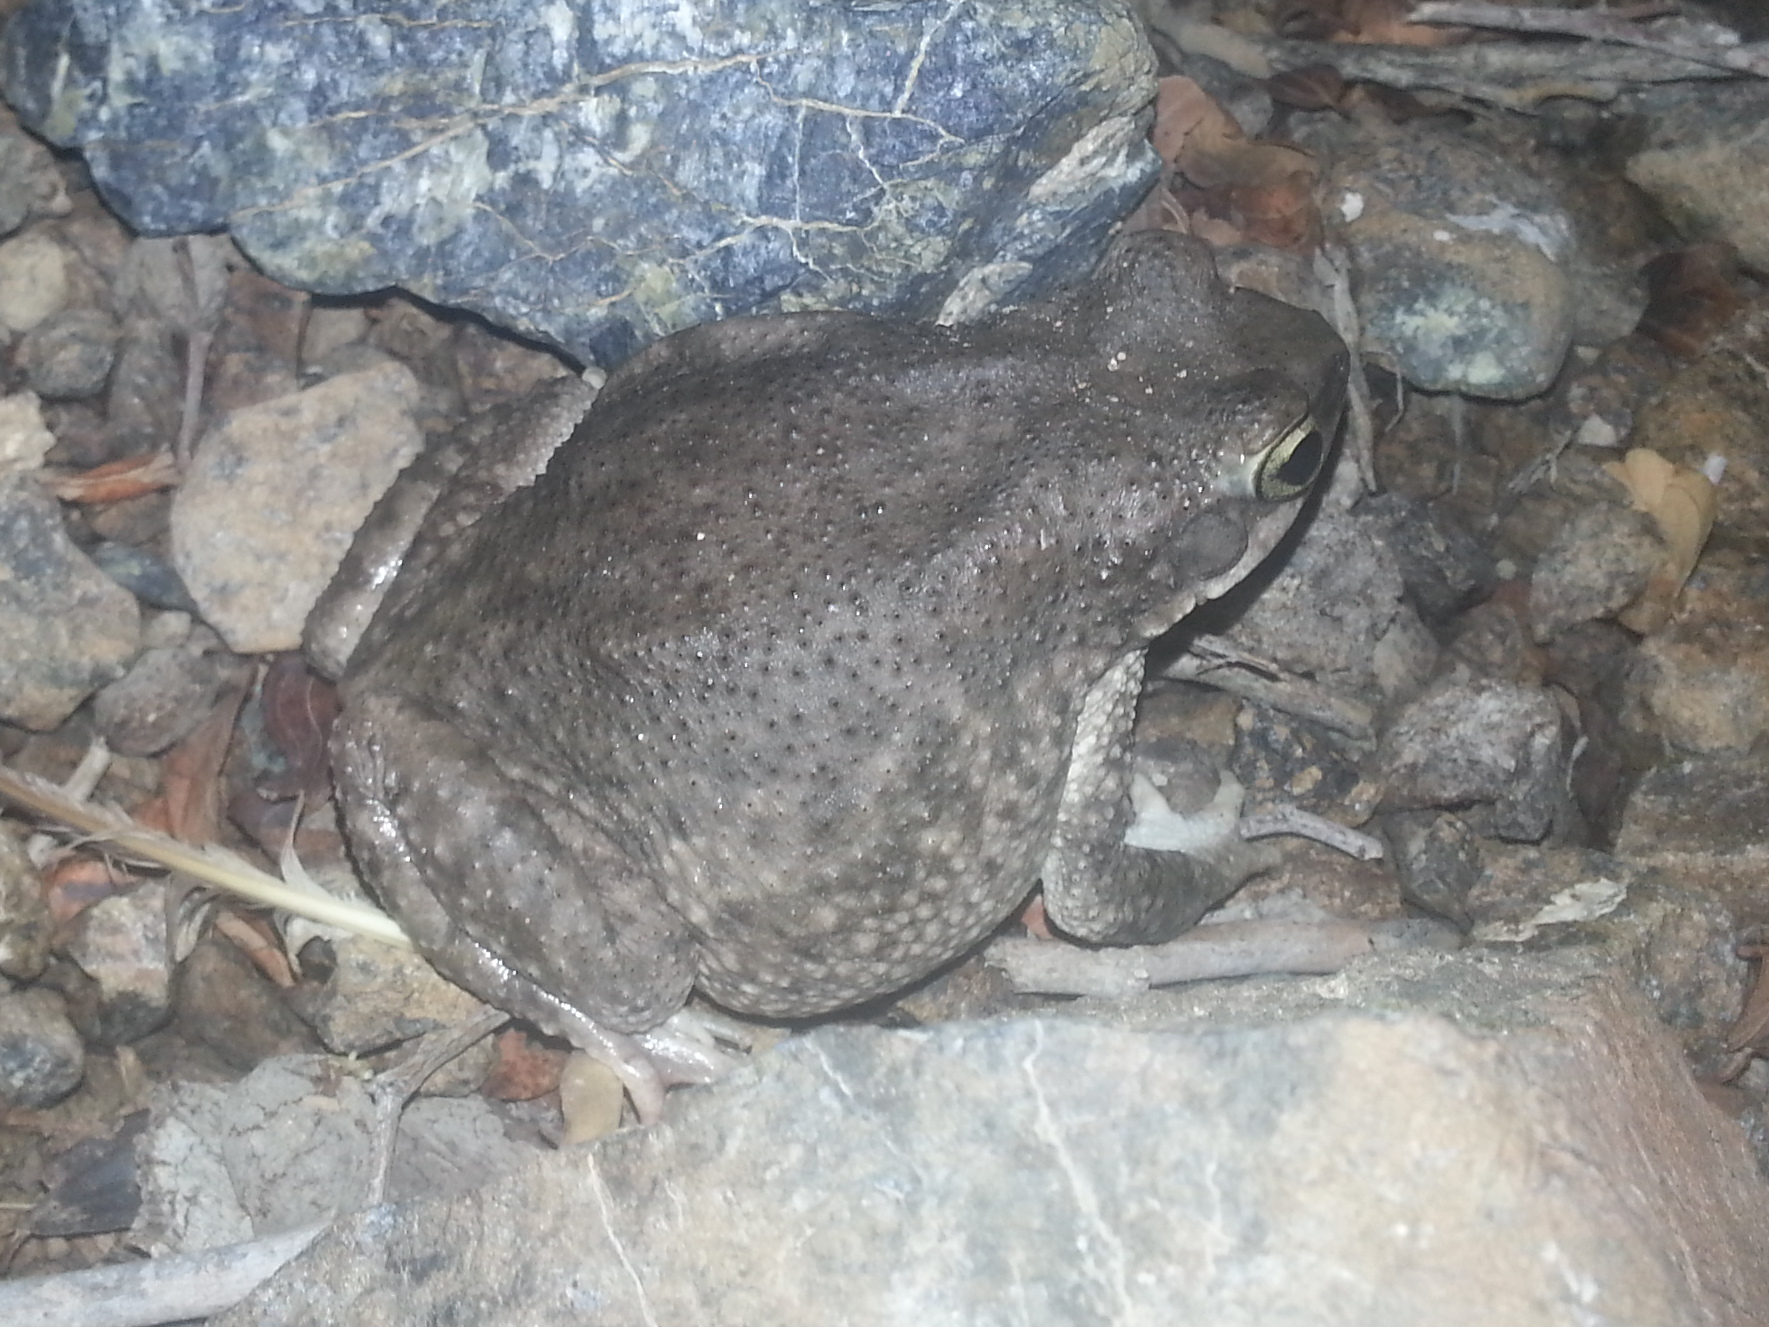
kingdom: Animalia
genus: Firouzophrynus
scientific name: Firouzophrynus
